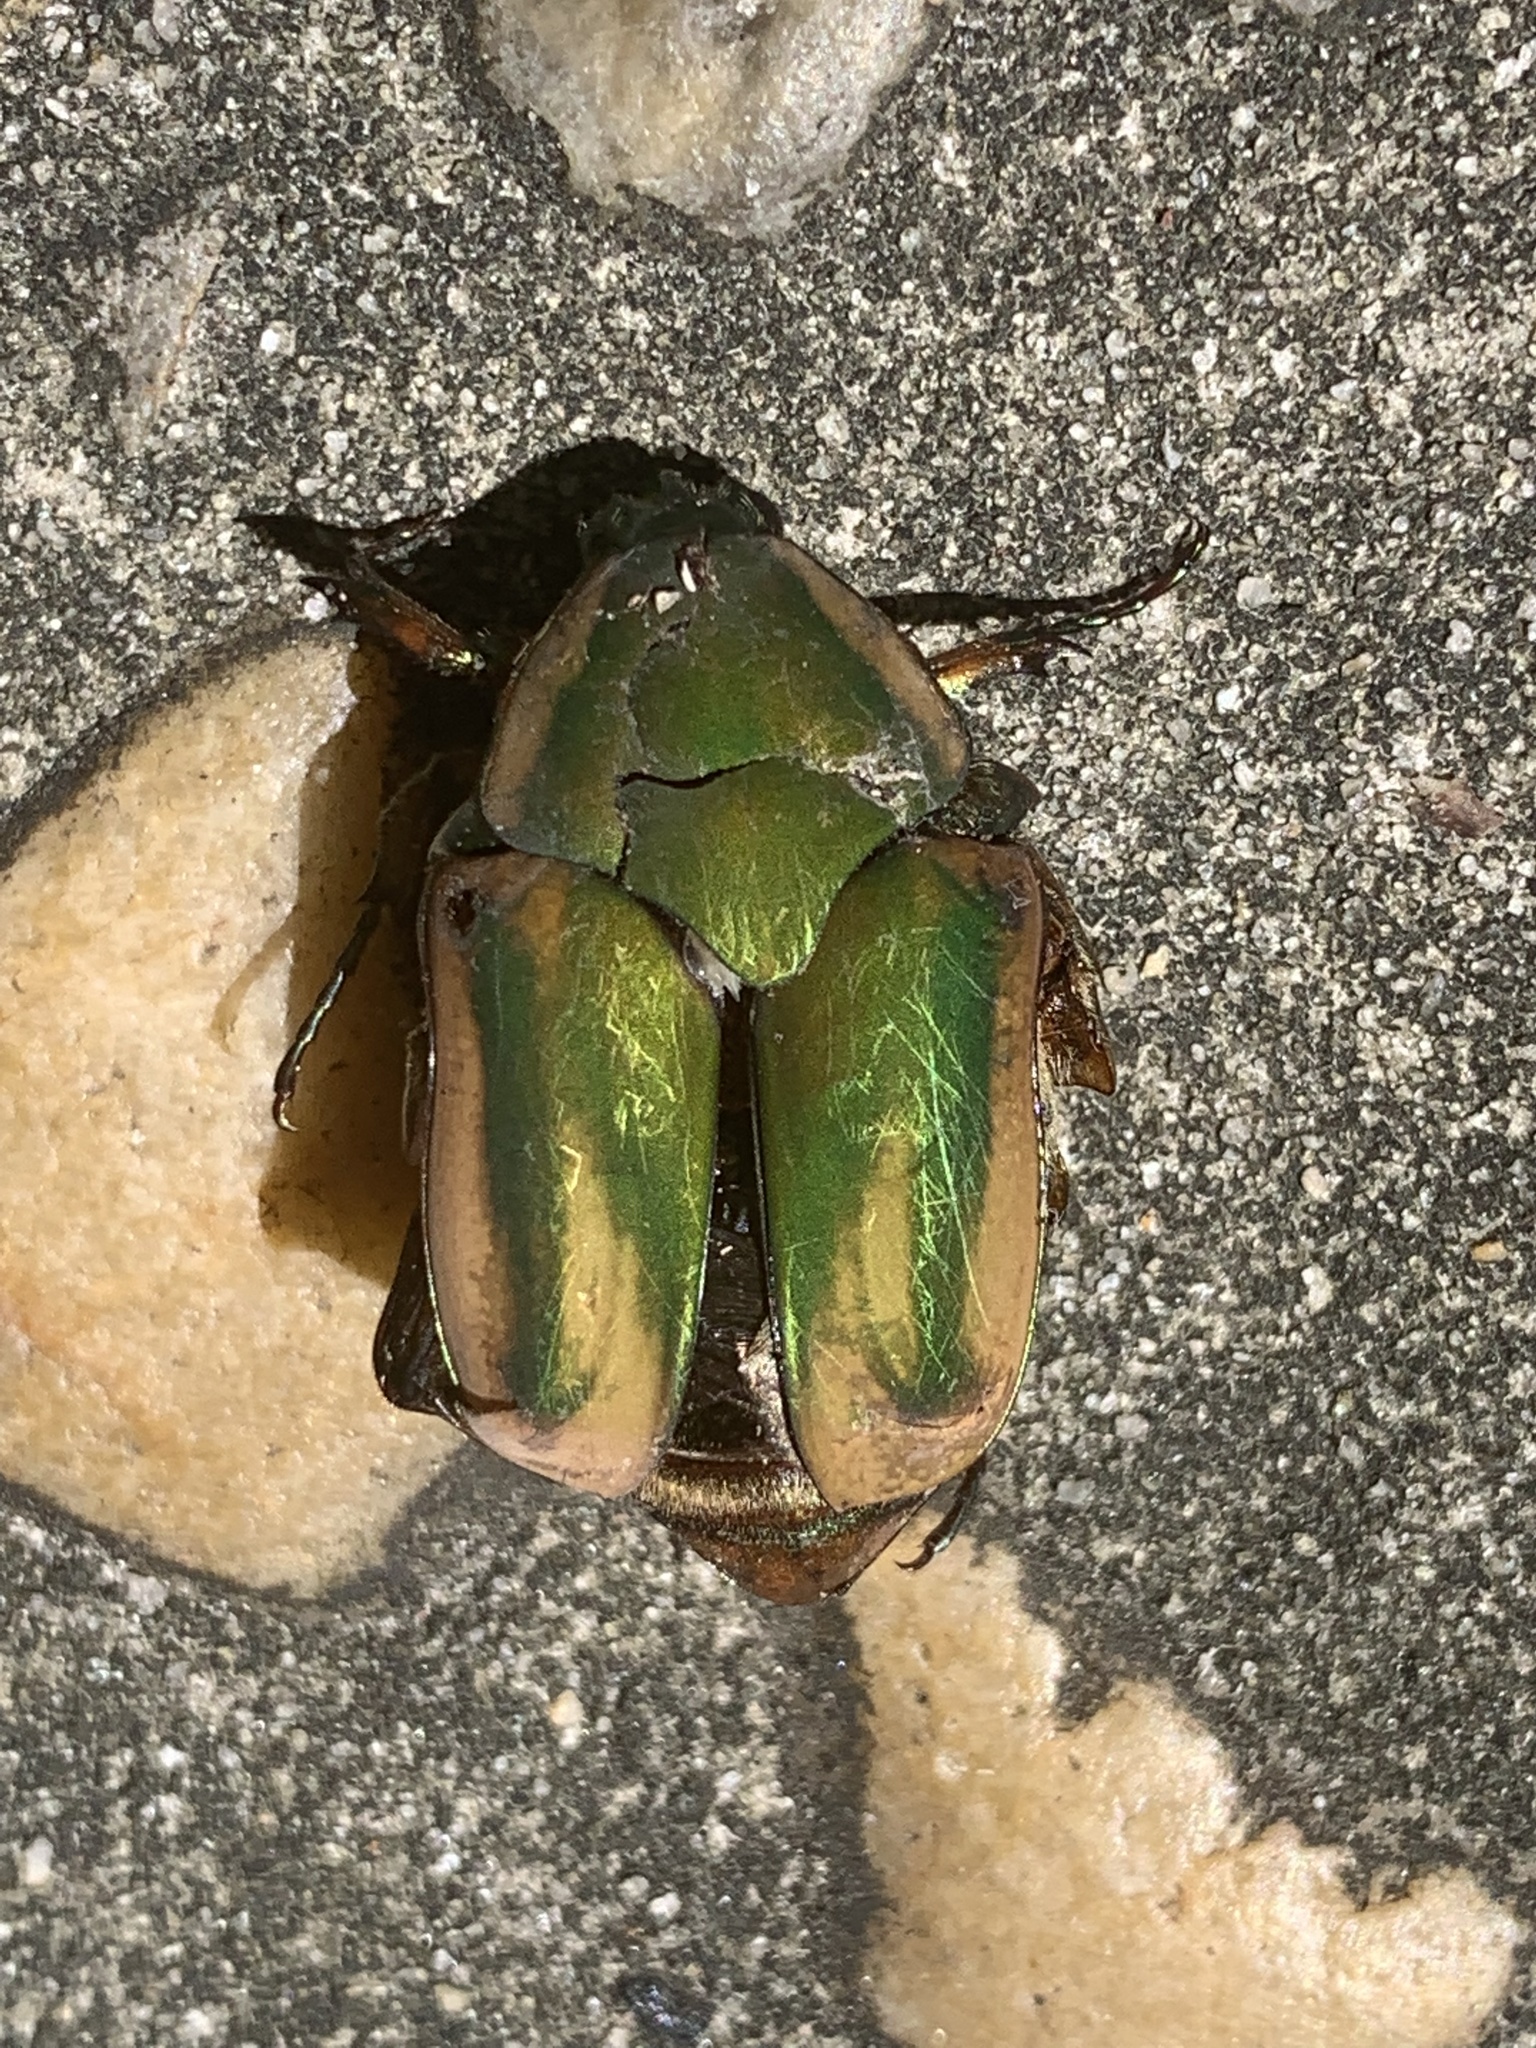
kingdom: Animalia
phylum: Arthropoda
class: Insecta
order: Coleoptera
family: Scarabaeidae
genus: Cotinis
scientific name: Cotinis nitida
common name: Common green june beetle
